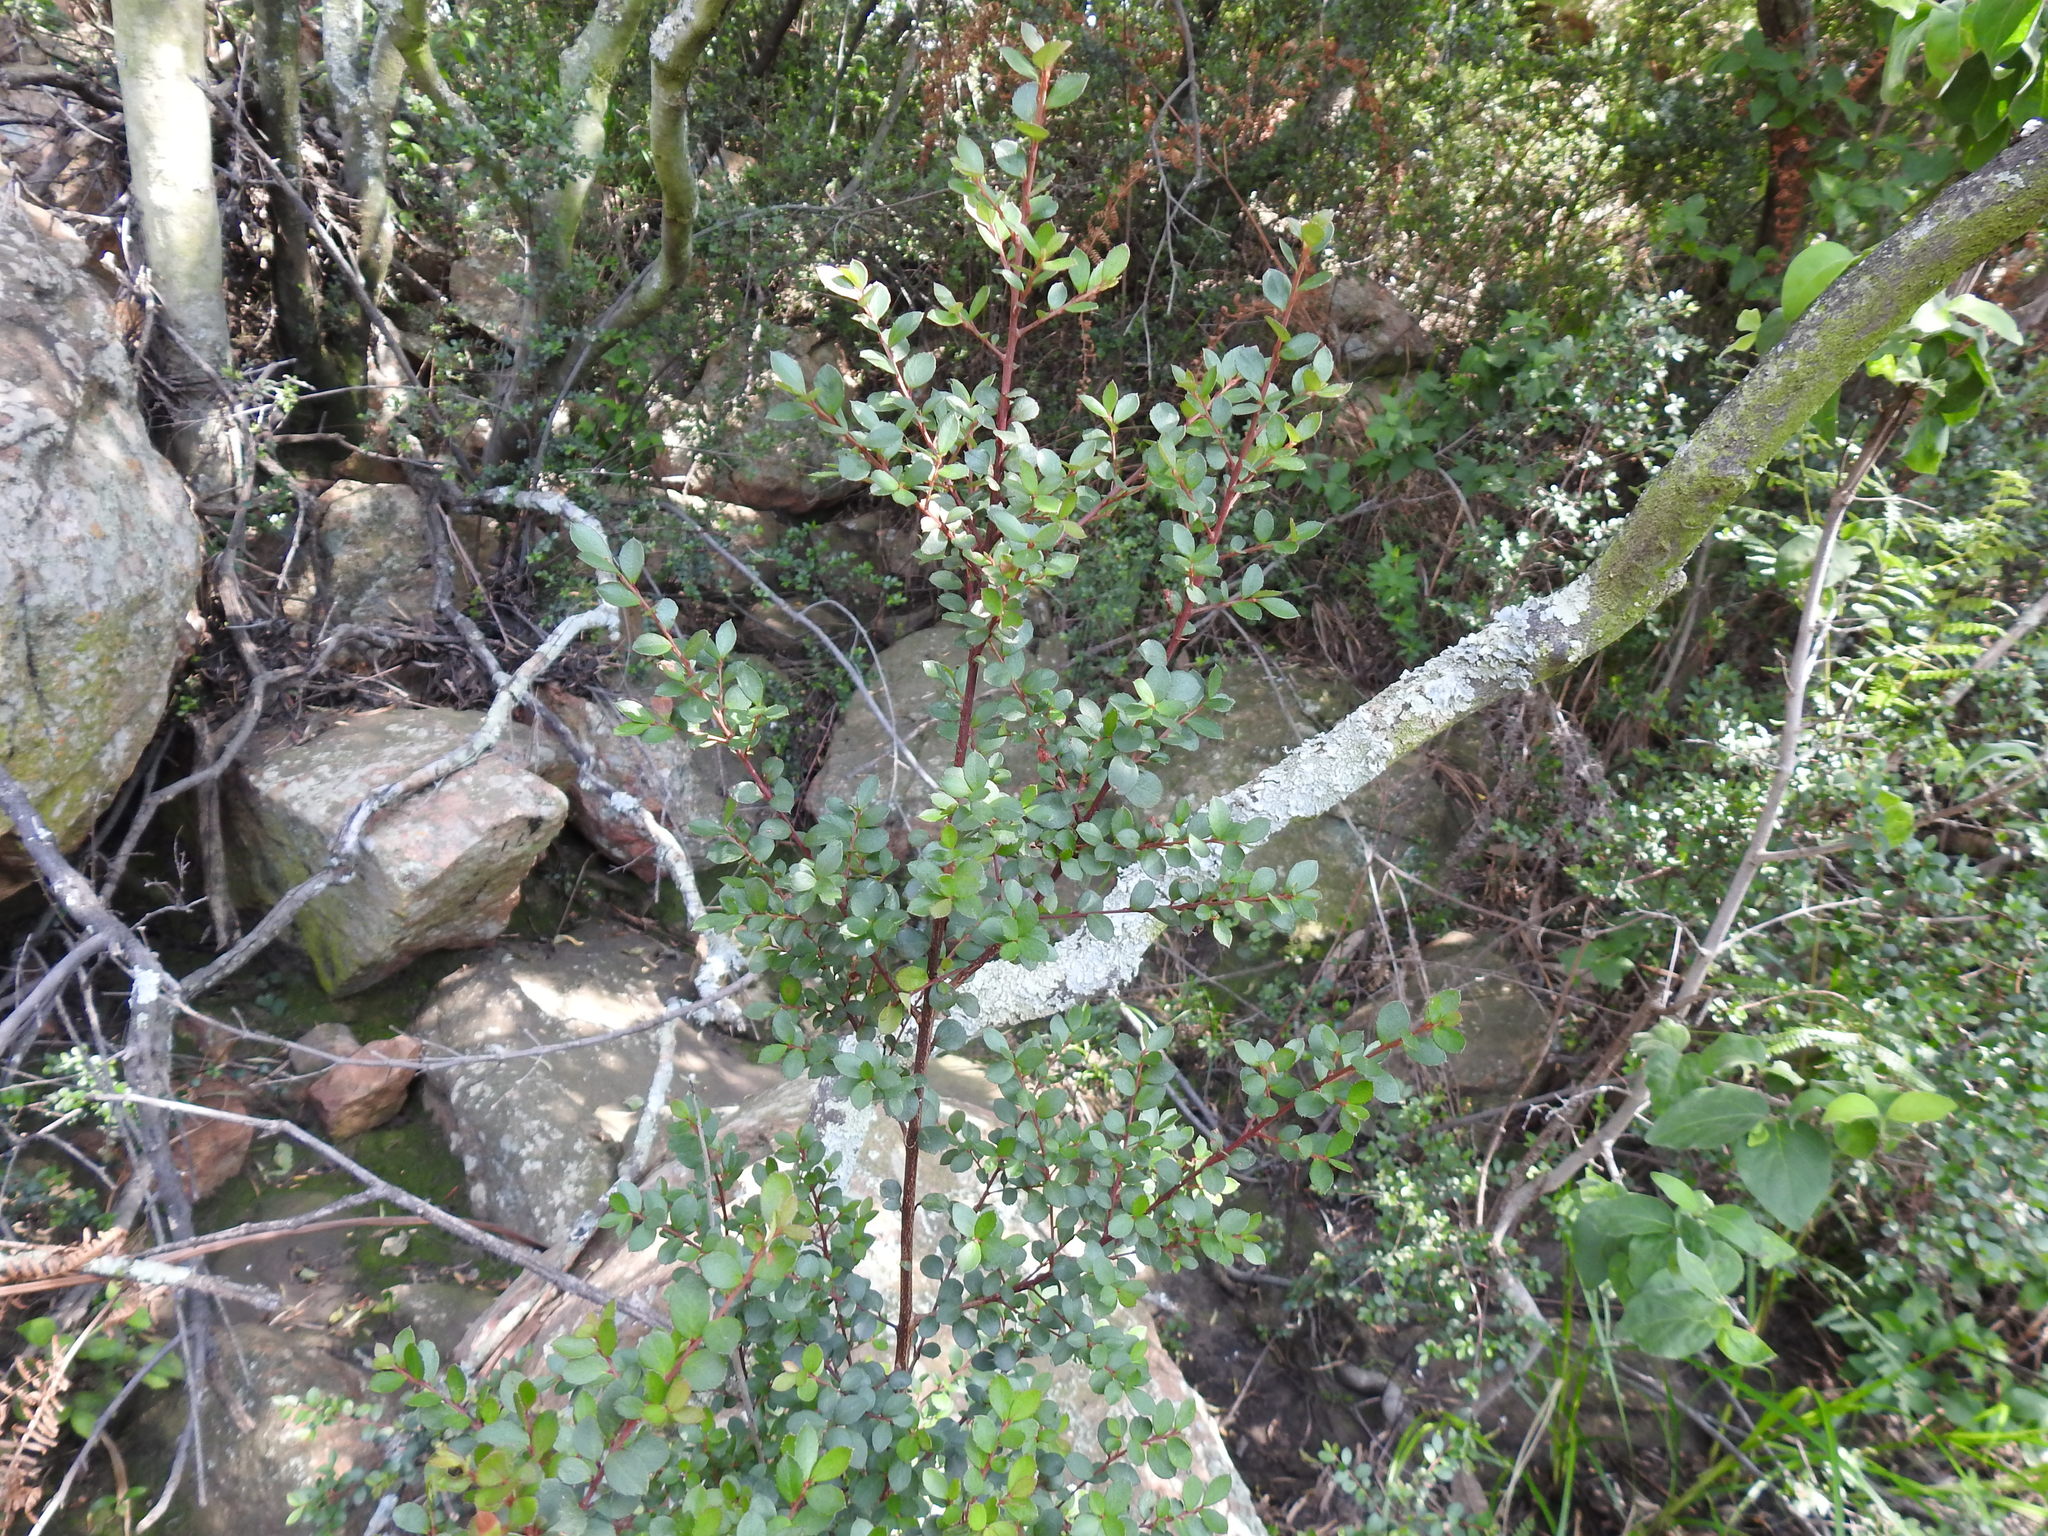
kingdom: Plantae
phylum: Tracheophyta
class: Magnoliopsida
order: Ericales
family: Primulaceae
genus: Myrsine
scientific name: Myrsine africana
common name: African-boxwood
